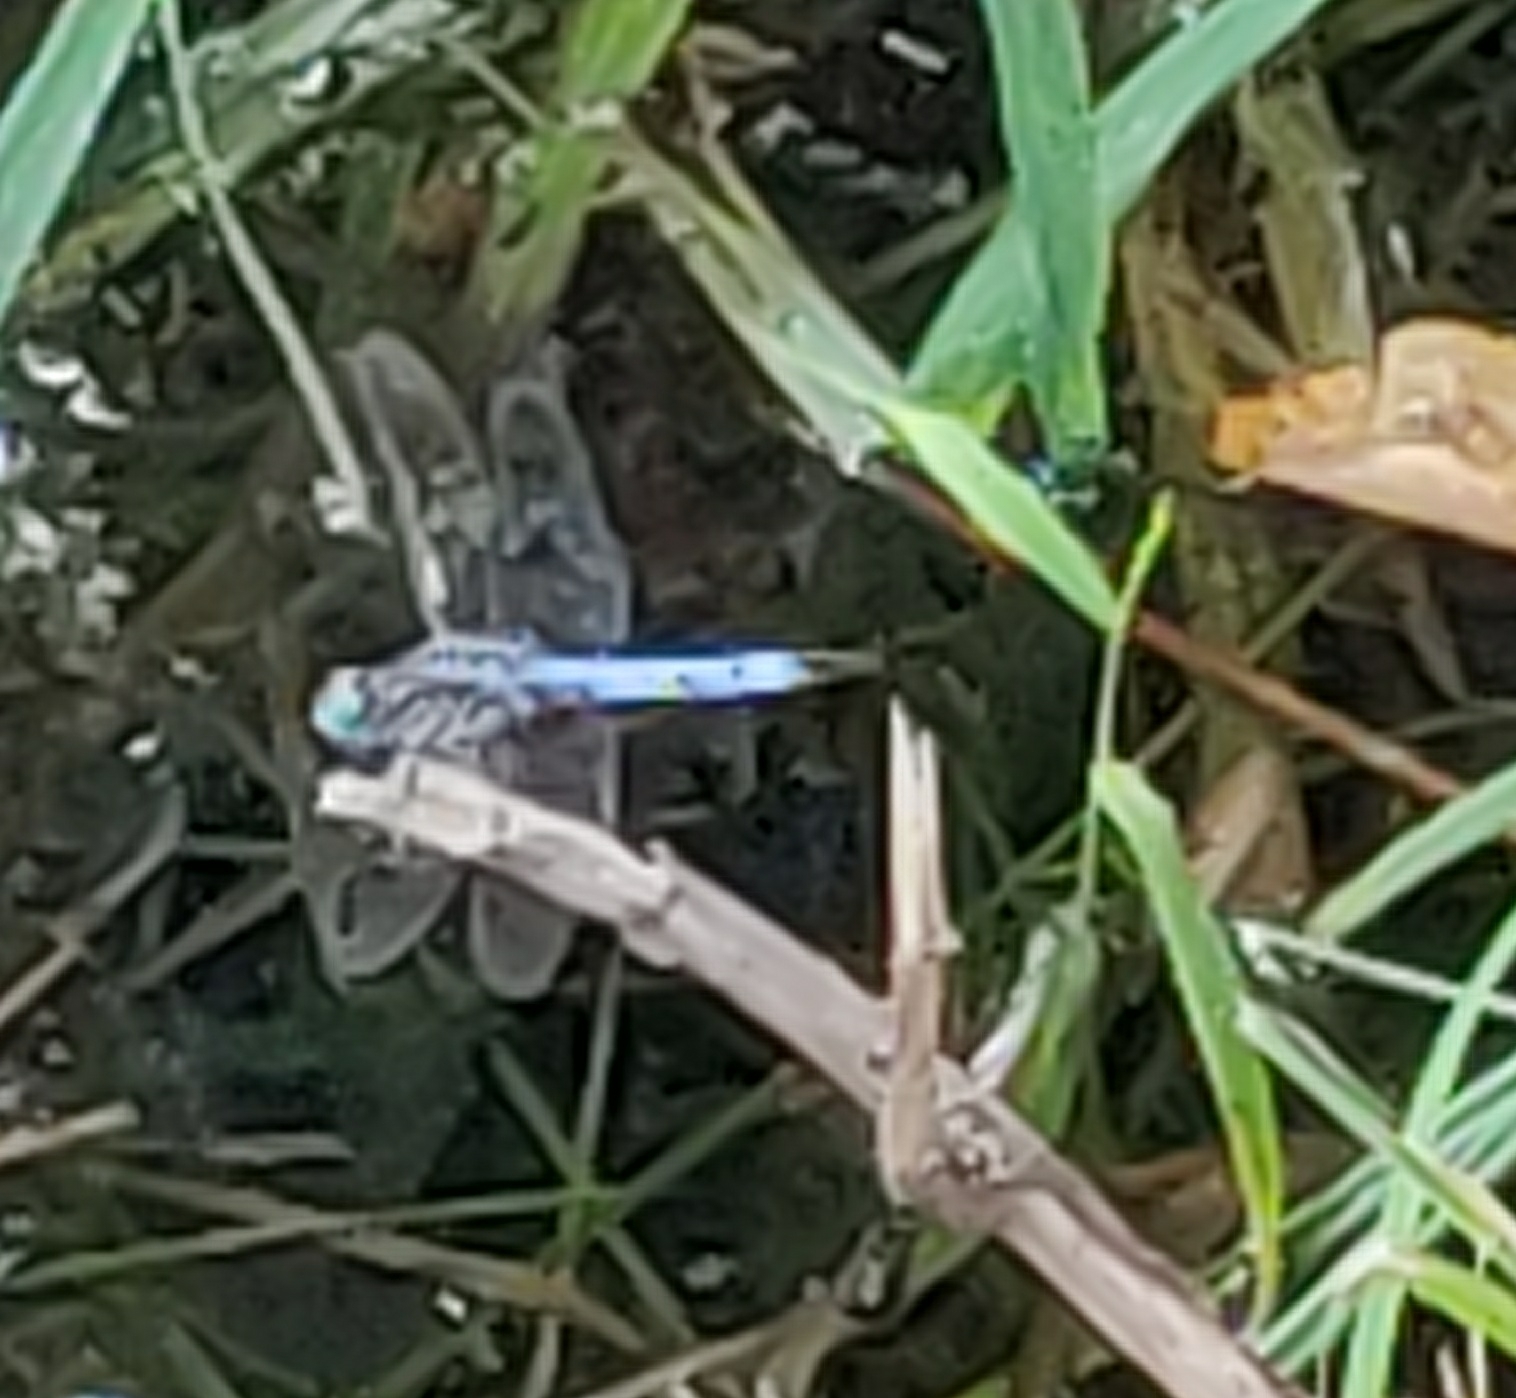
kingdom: Animalia
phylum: Arthropoda
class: Insecta
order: Odonata
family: Libellulidae
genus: Pachydiplax
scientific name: Pachydiplax longipennis
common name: Blue dasher
